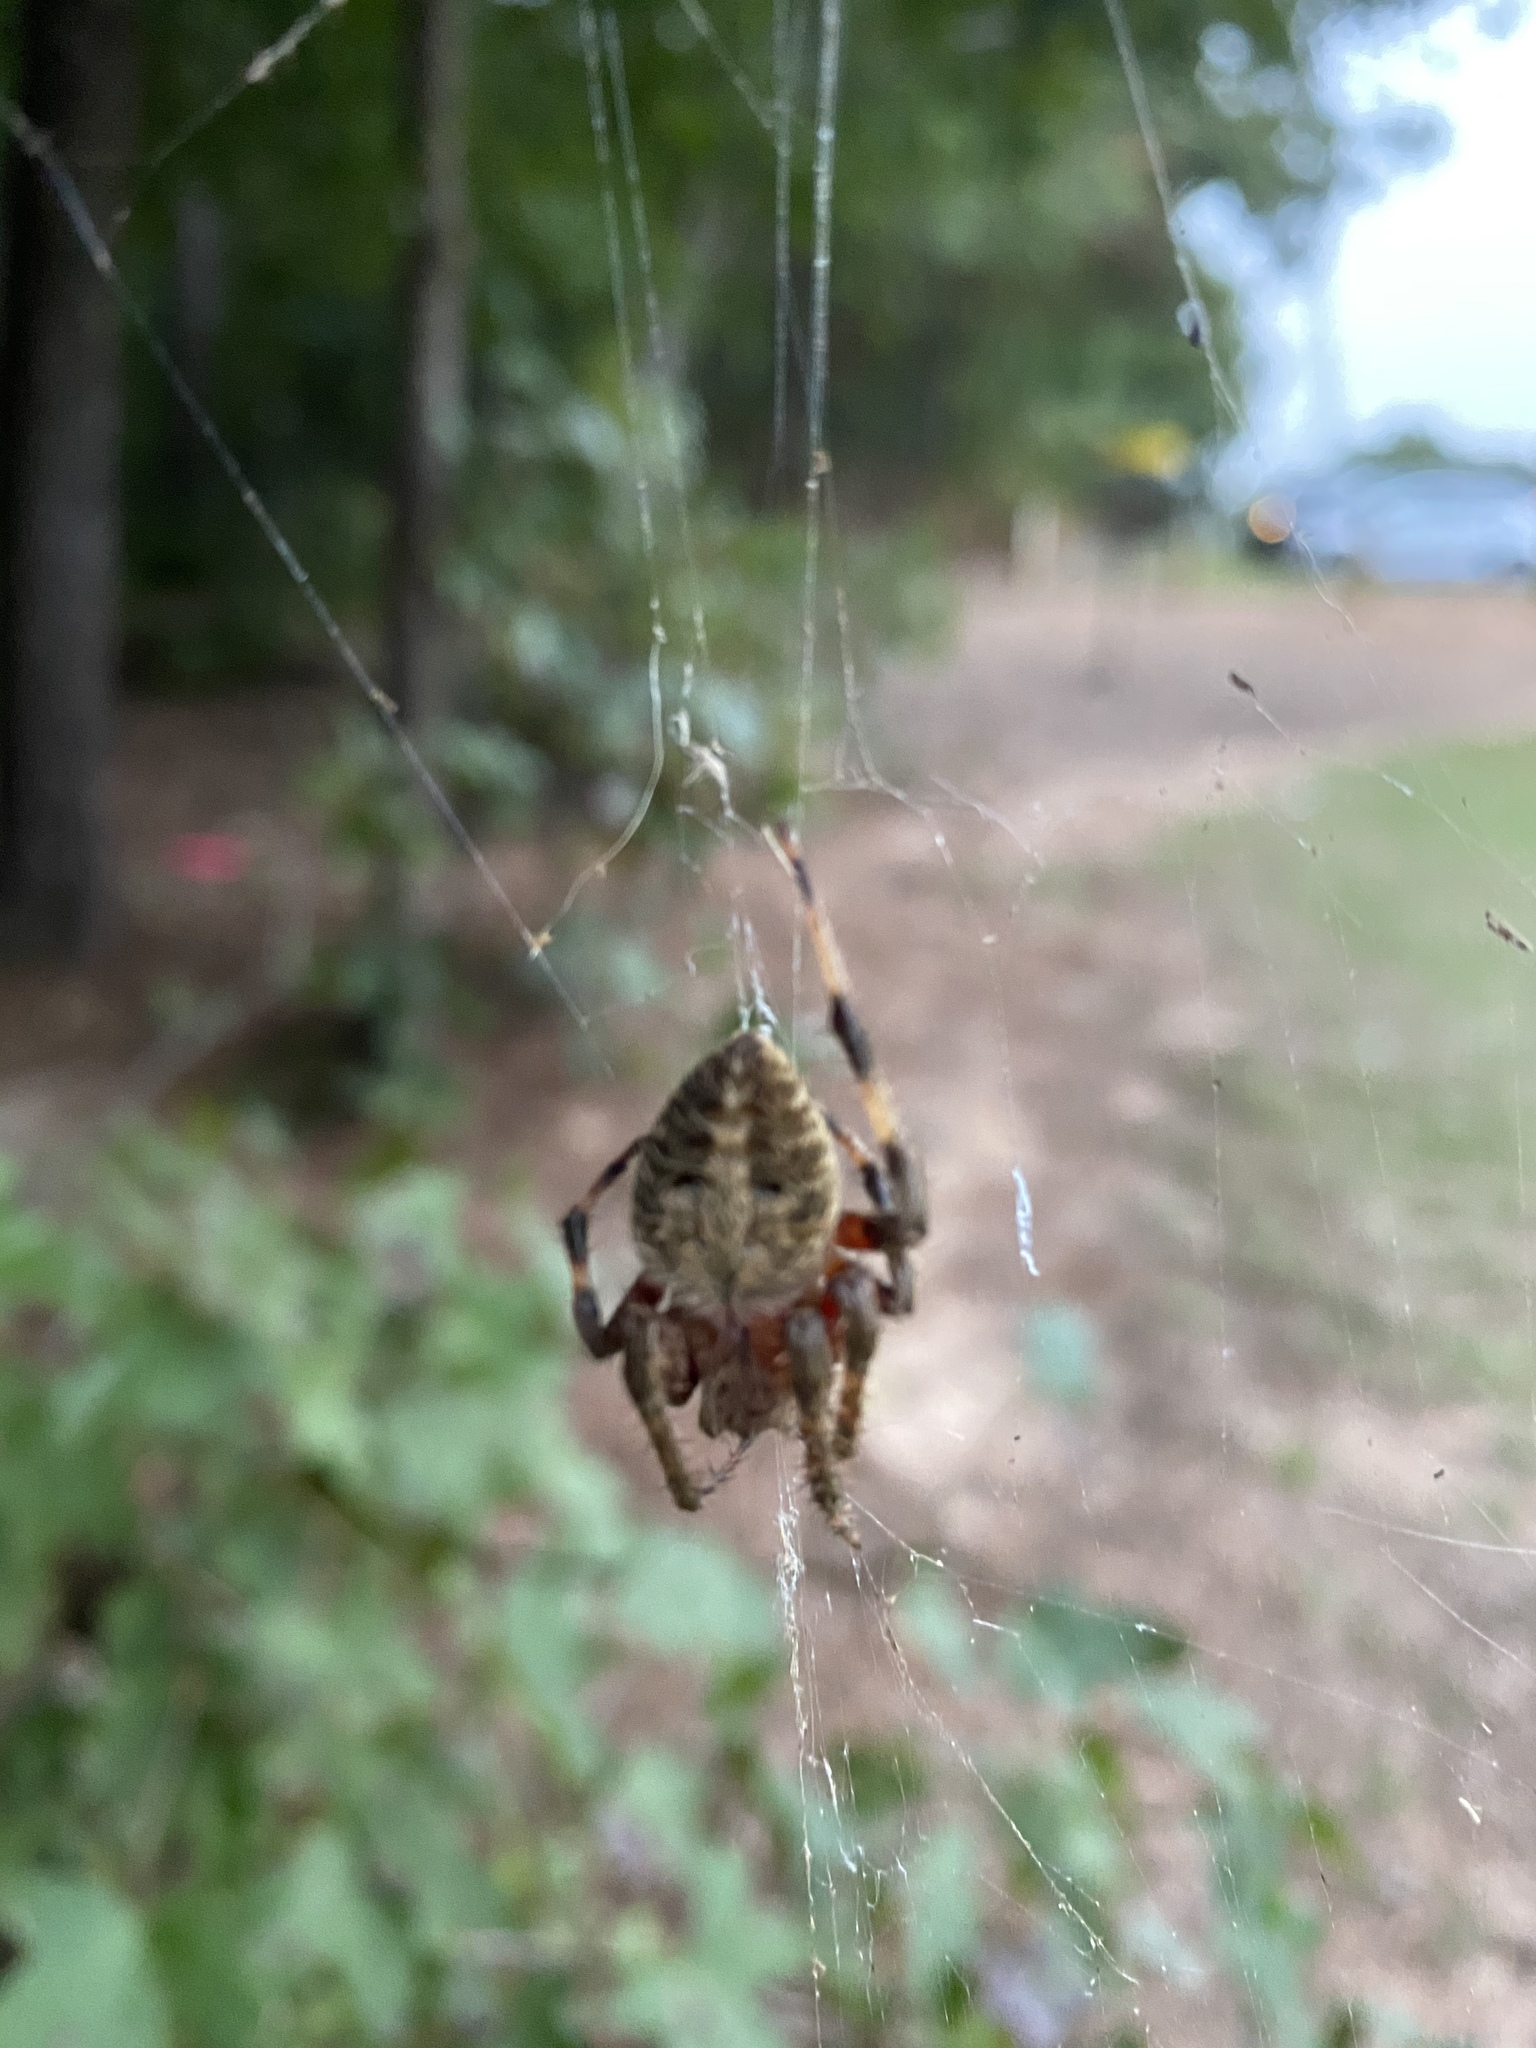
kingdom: Animalia
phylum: Arthropoda
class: Arachnida
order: Araneae
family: Araneidae
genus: Neoscona
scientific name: Neoscona crucifera
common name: Spotted orbweaver
